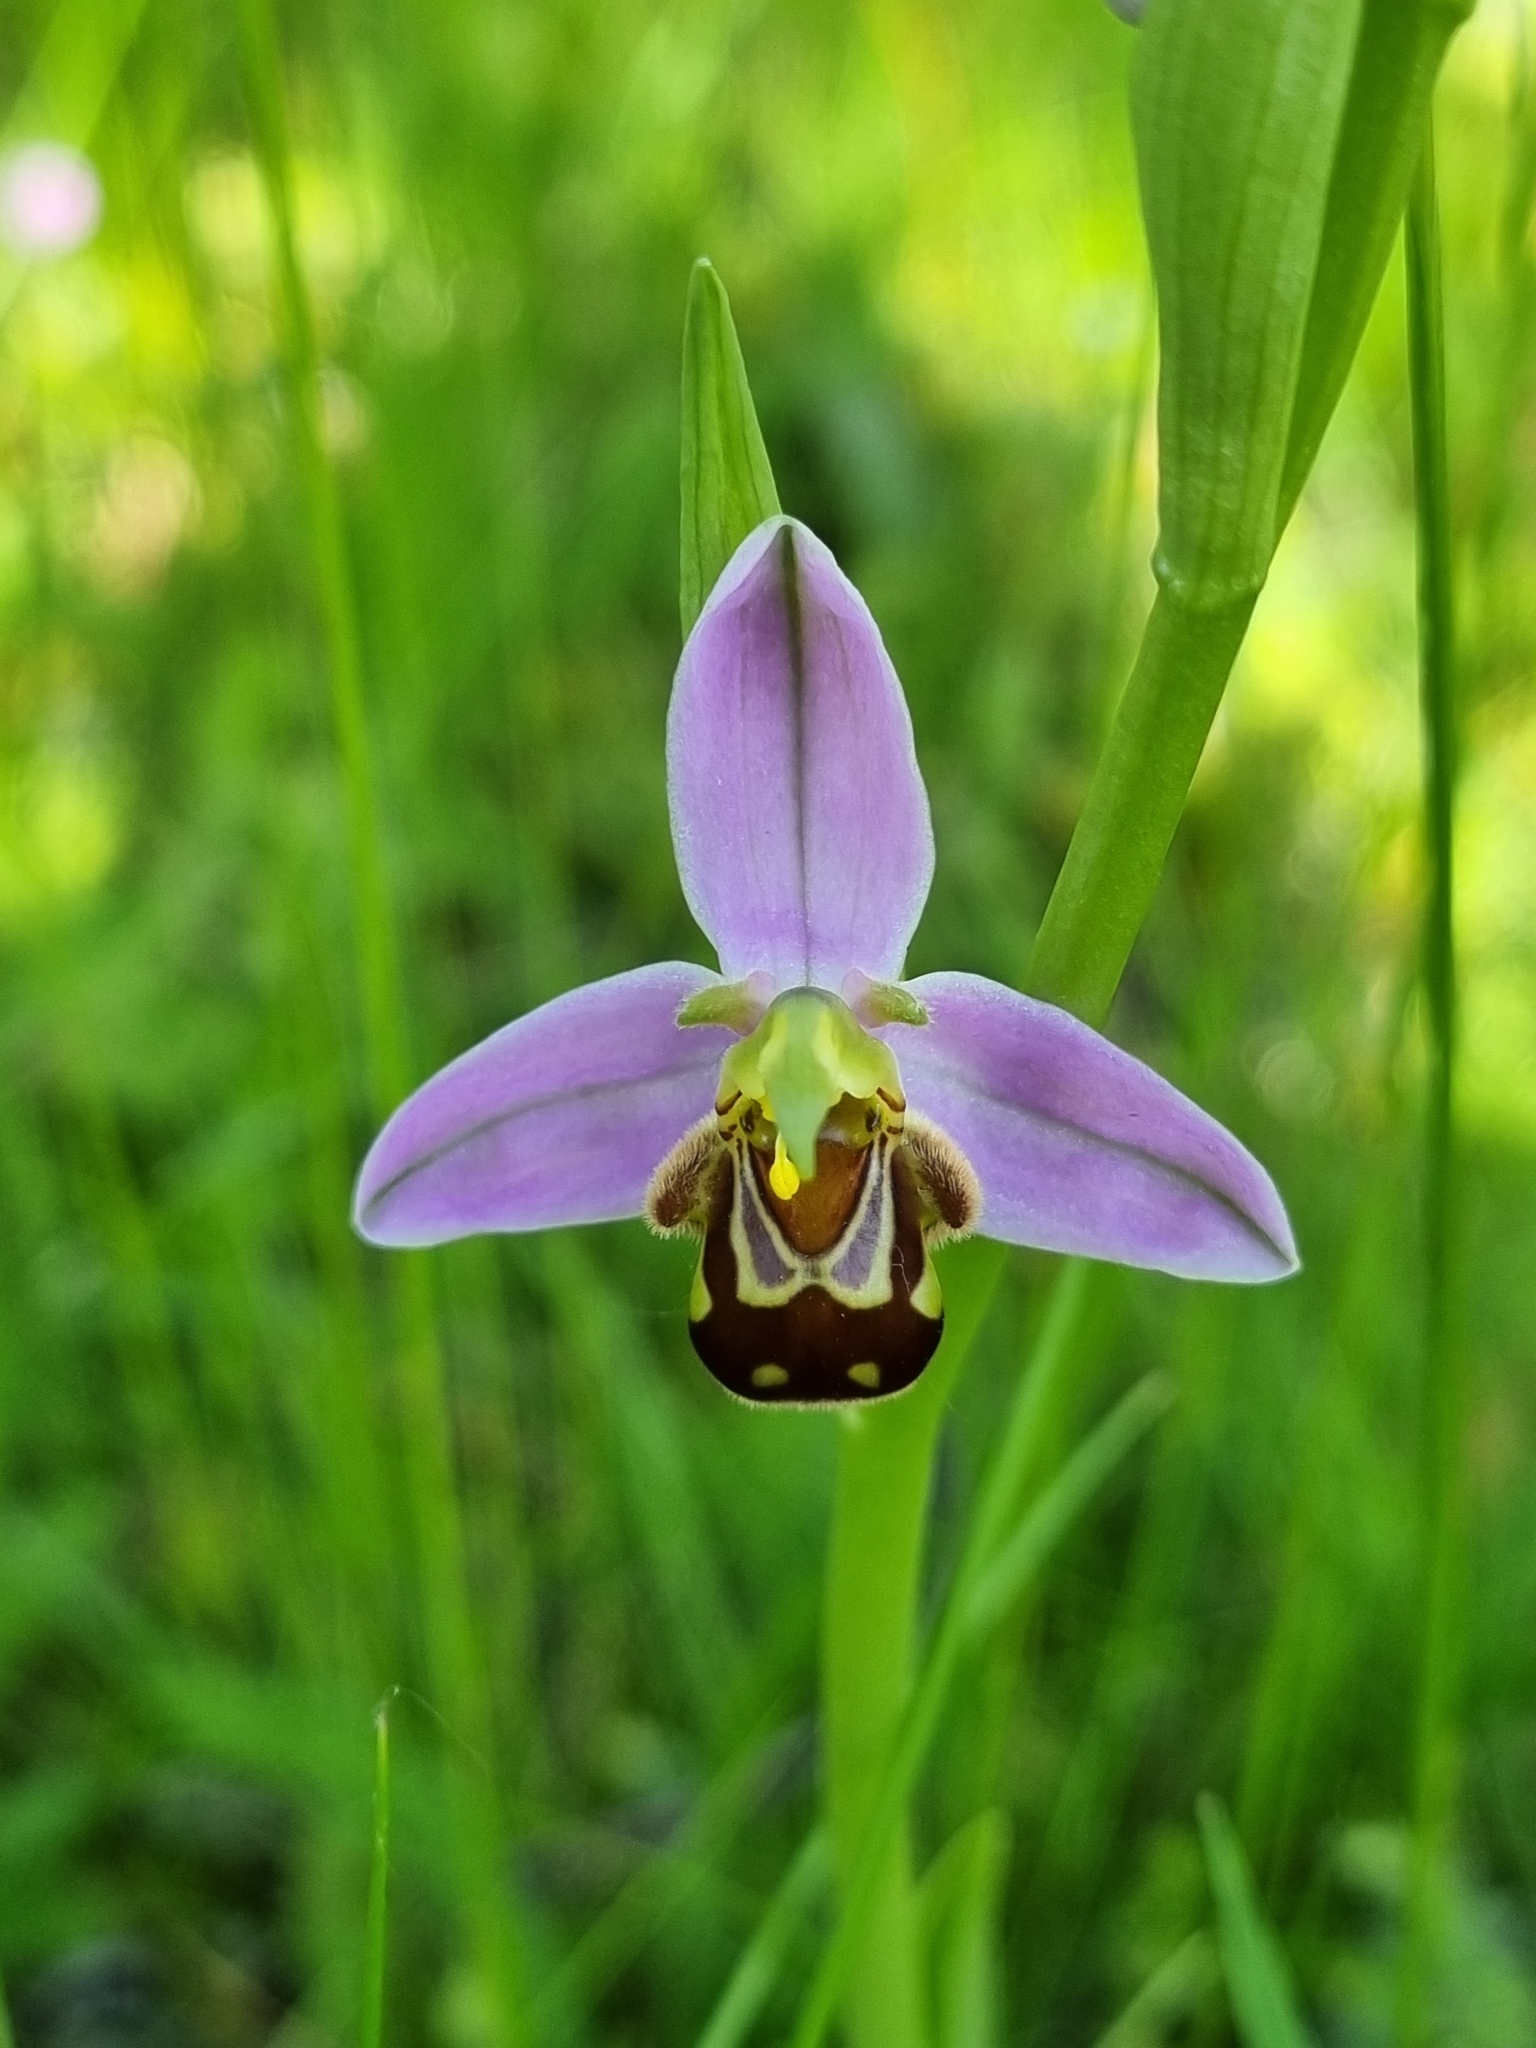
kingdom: Plantae
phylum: Tracheophyta
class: Liliopsida
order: Asparagales
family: Orchidaceae
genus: Ophrys
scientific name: Ophrys apifera
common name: Bee orchid
